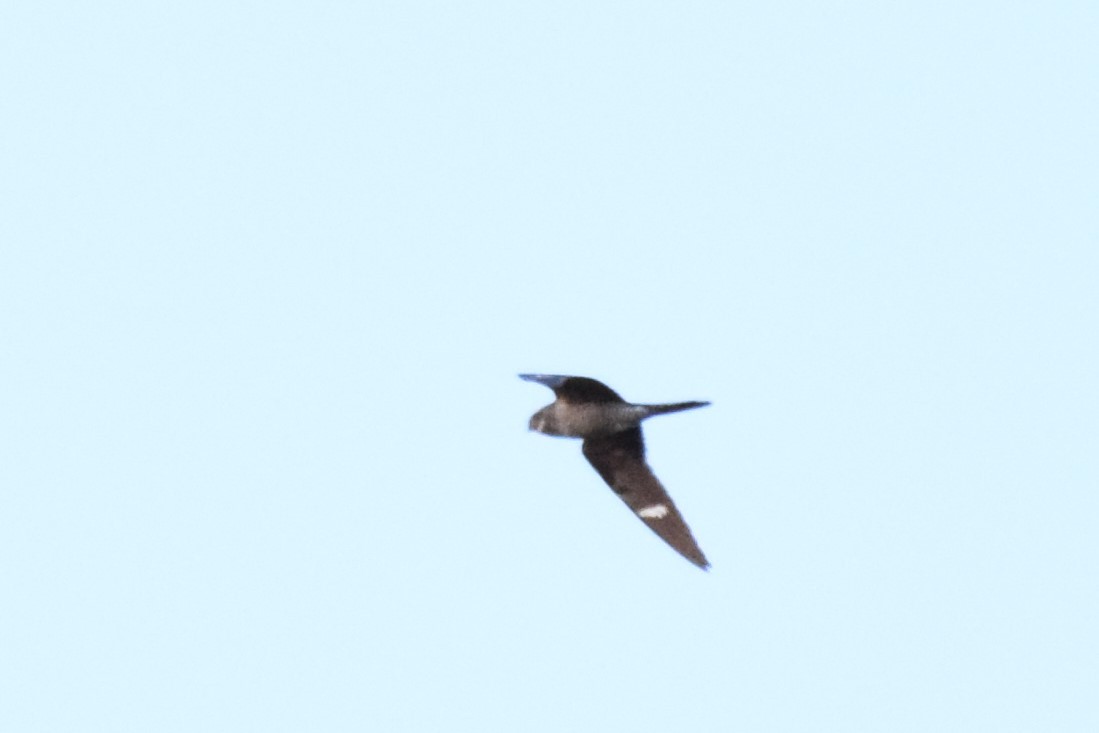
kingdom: Animalia
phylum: Chordata
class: Aves
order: Caprimulgiformes
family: Caprimulgidae
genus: Chordeiles
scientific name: Chordeiles minor
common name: Common nighthawk
